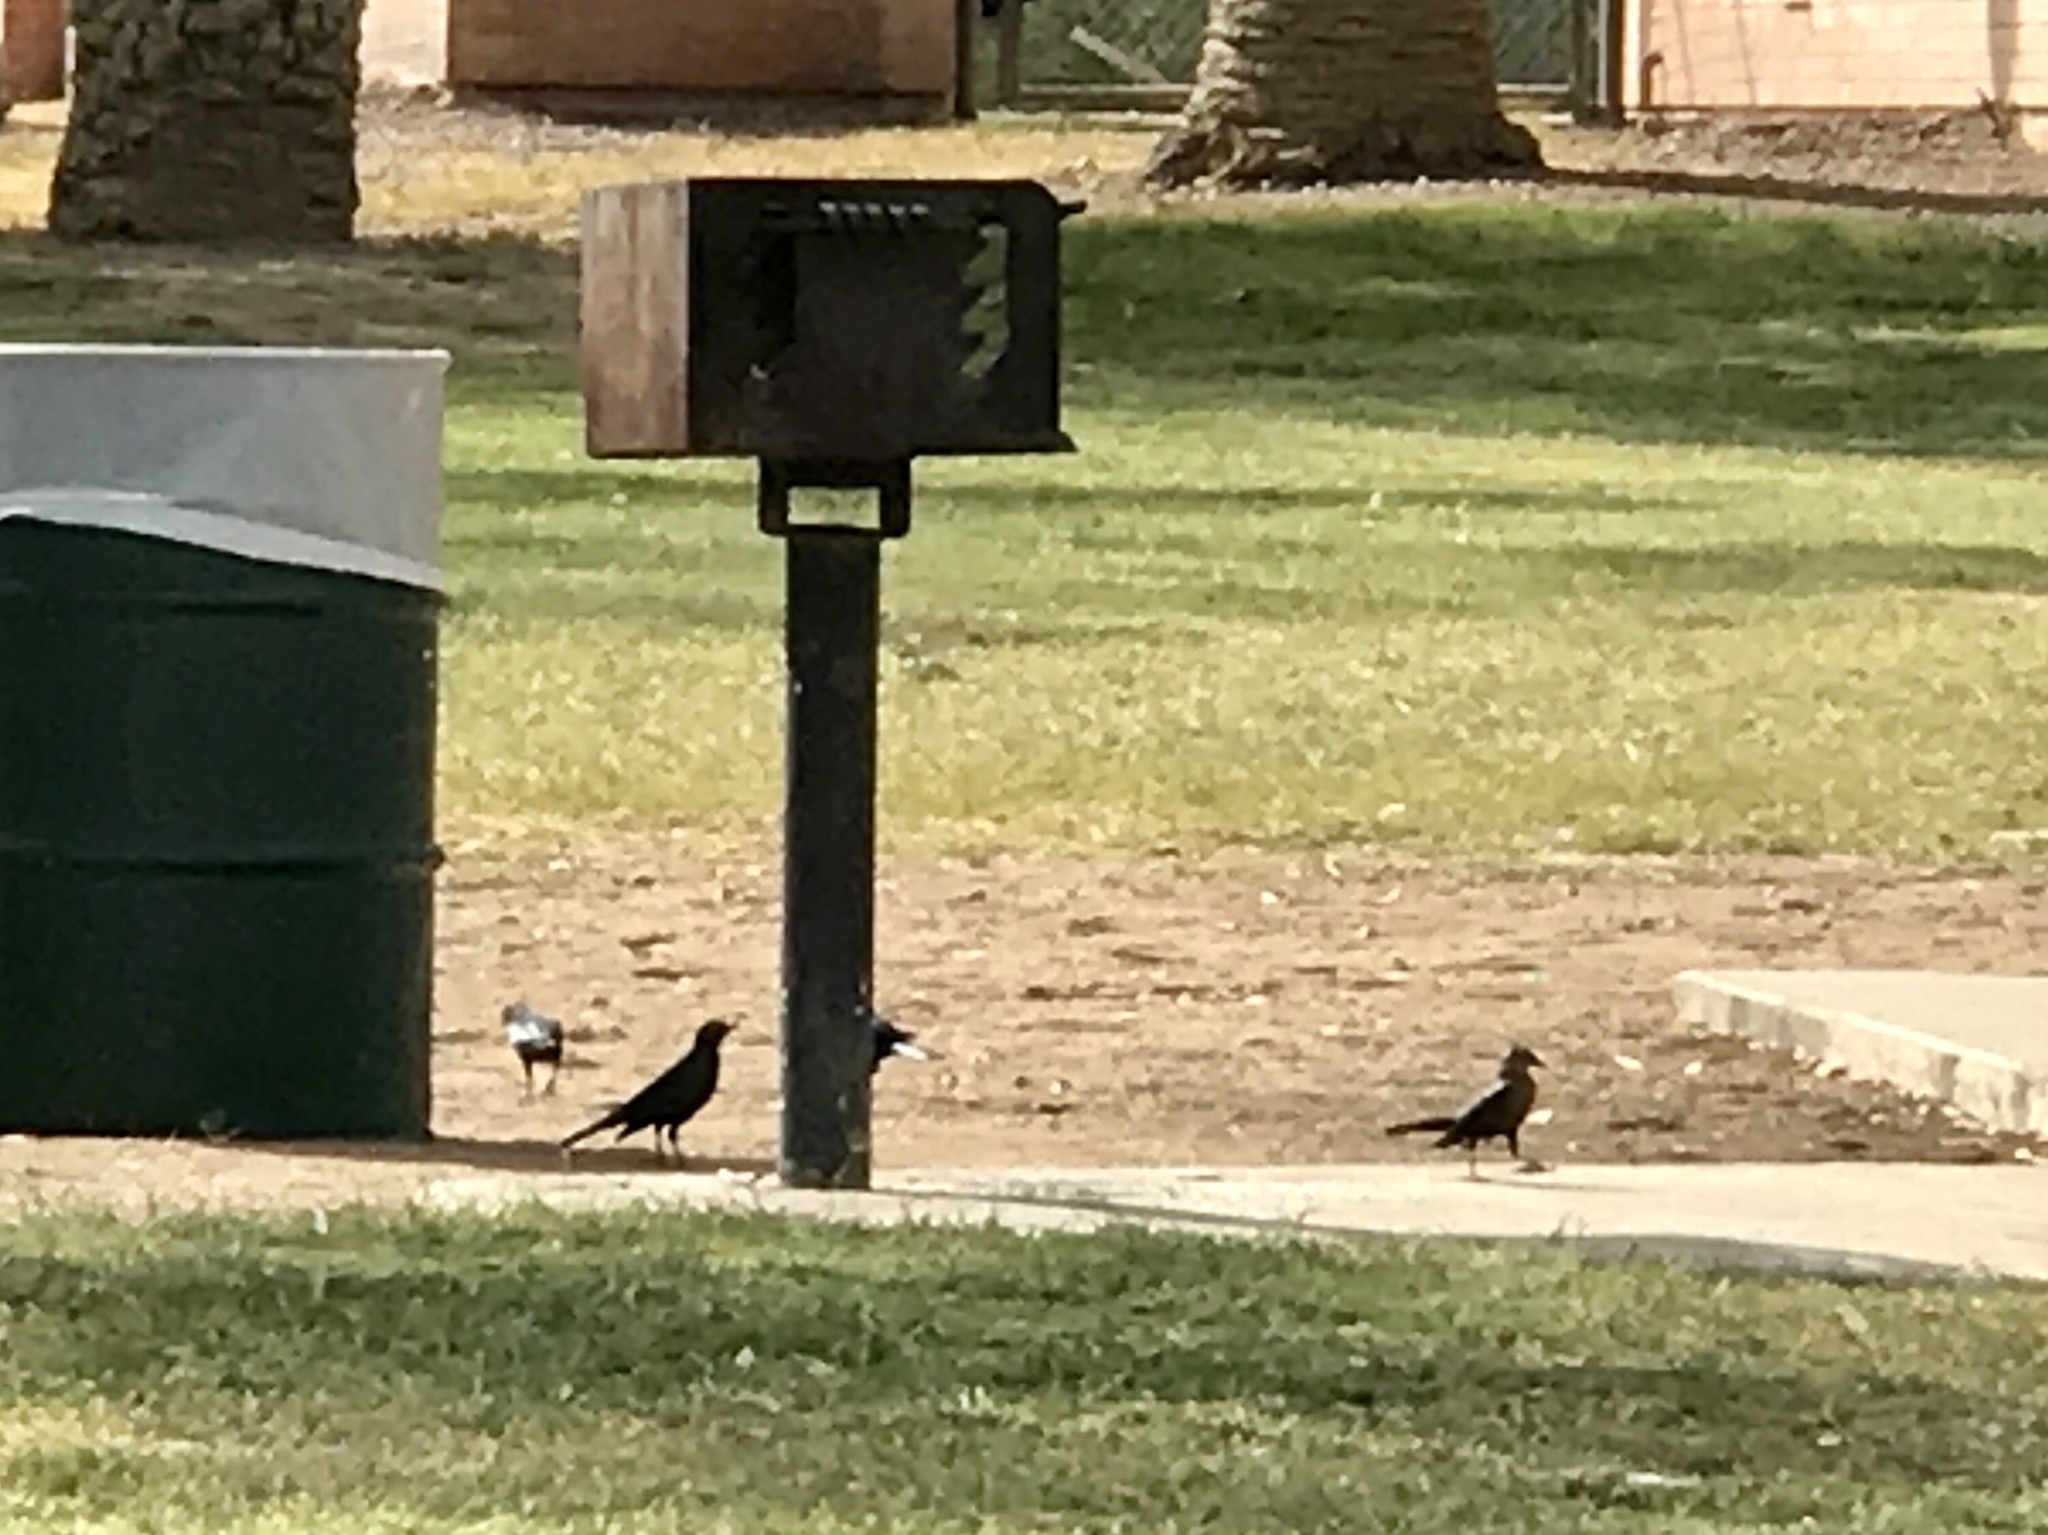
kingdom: Animalia
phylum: Chordata
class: Aves
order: Passeriformes
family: Icteridae
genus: Quiscalus
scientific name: Quiscalus mexicanus
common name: Great-tailed grackle
